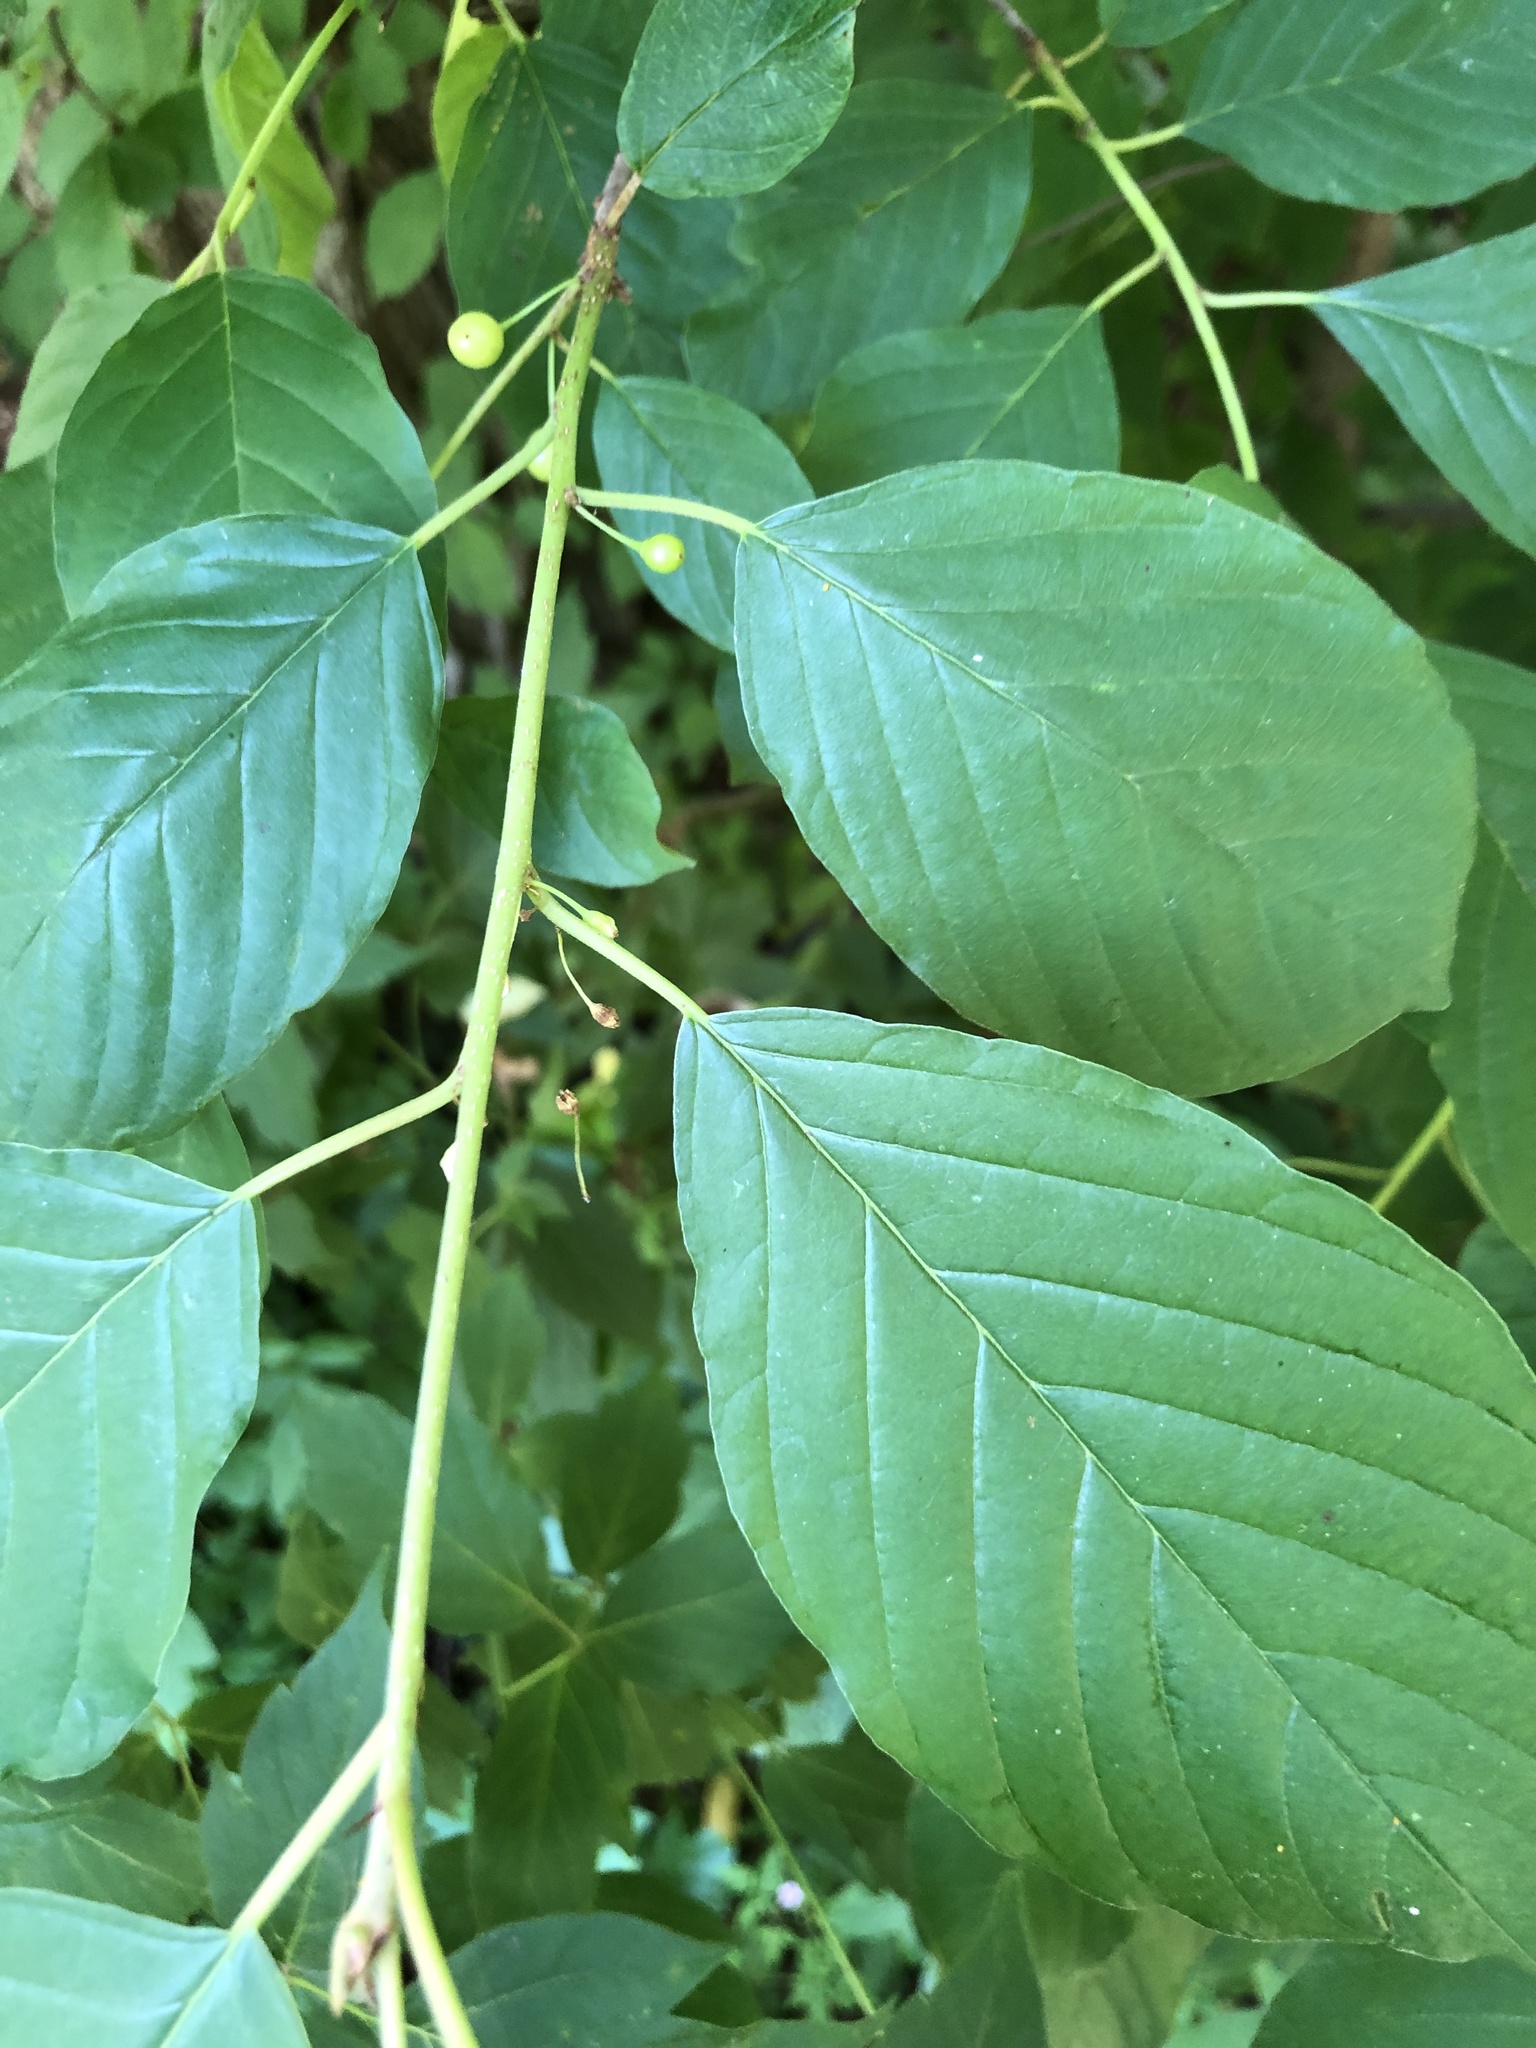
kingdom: Plantae
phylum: Tracheophyta
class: Magnoliopsida
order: Rosales
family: Rhamnaceae
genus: Frangula
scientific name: Frangula alnus
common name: Alder buckthorn
